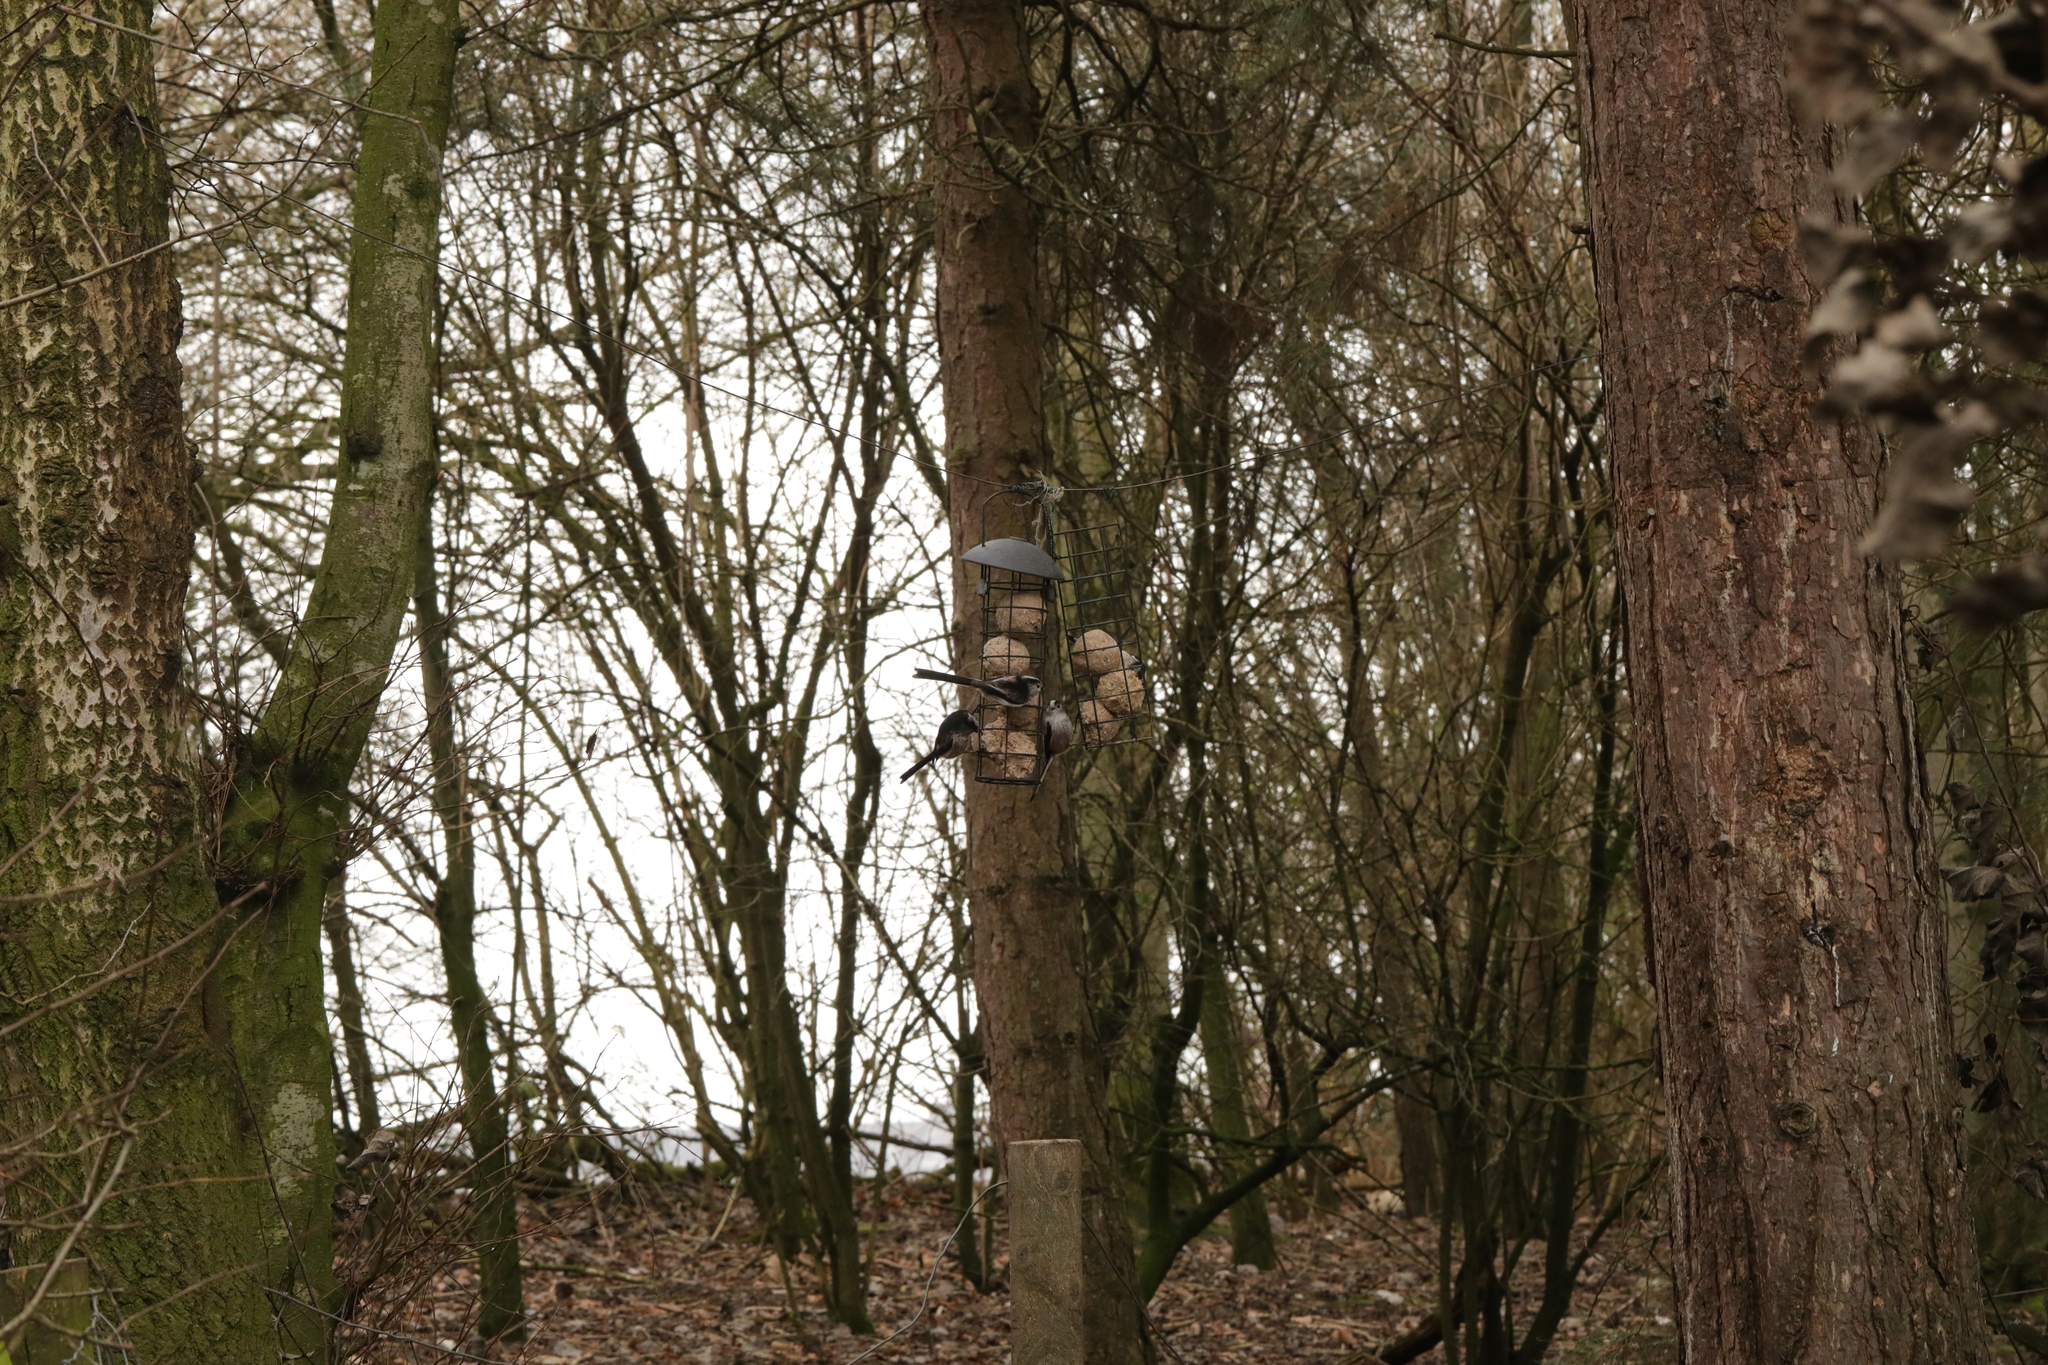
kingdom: Animalia
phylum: Chordata
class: Aves
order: Passeriformes
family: Aegithalidae
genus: Aegithalos
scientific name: Aegithalos caudatus
